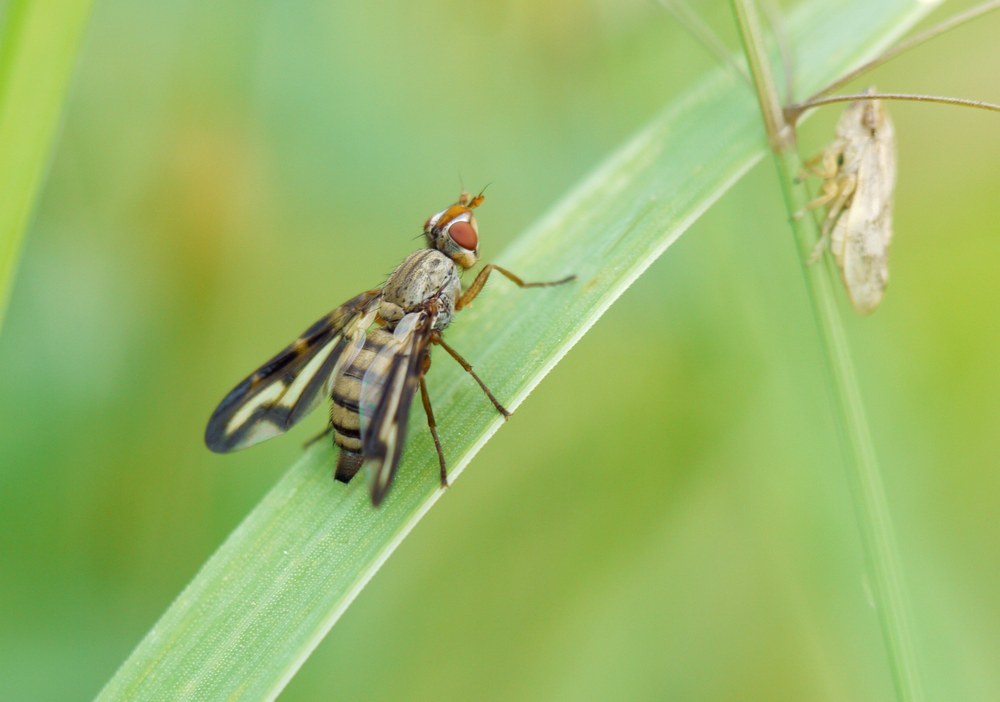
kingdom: Animalia
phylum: Arthropoda
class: Insecta
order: Diptera
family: Ulidiidae
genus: Otites
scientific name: Otites lamed
